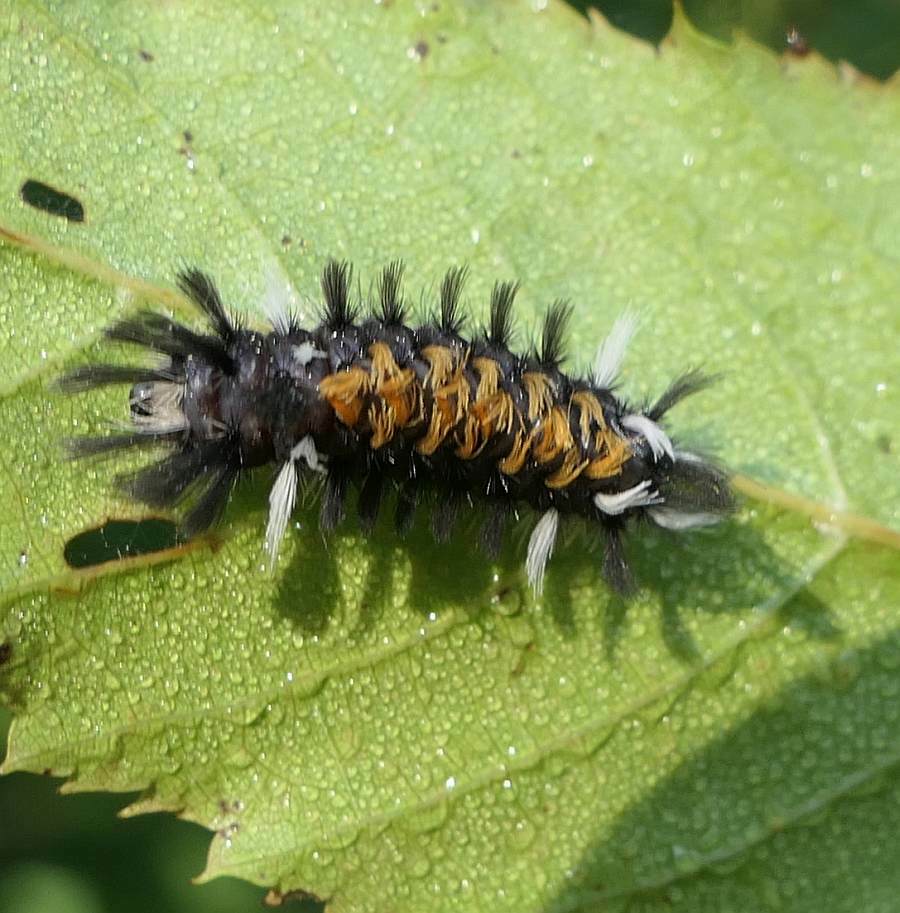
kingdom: Animalia
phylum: Arthropoda
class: Insecta
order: Lepidoptera
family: Erebidae
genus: Euchaetes
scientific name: Euchaetes egle
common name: Milkweed tussock moth
